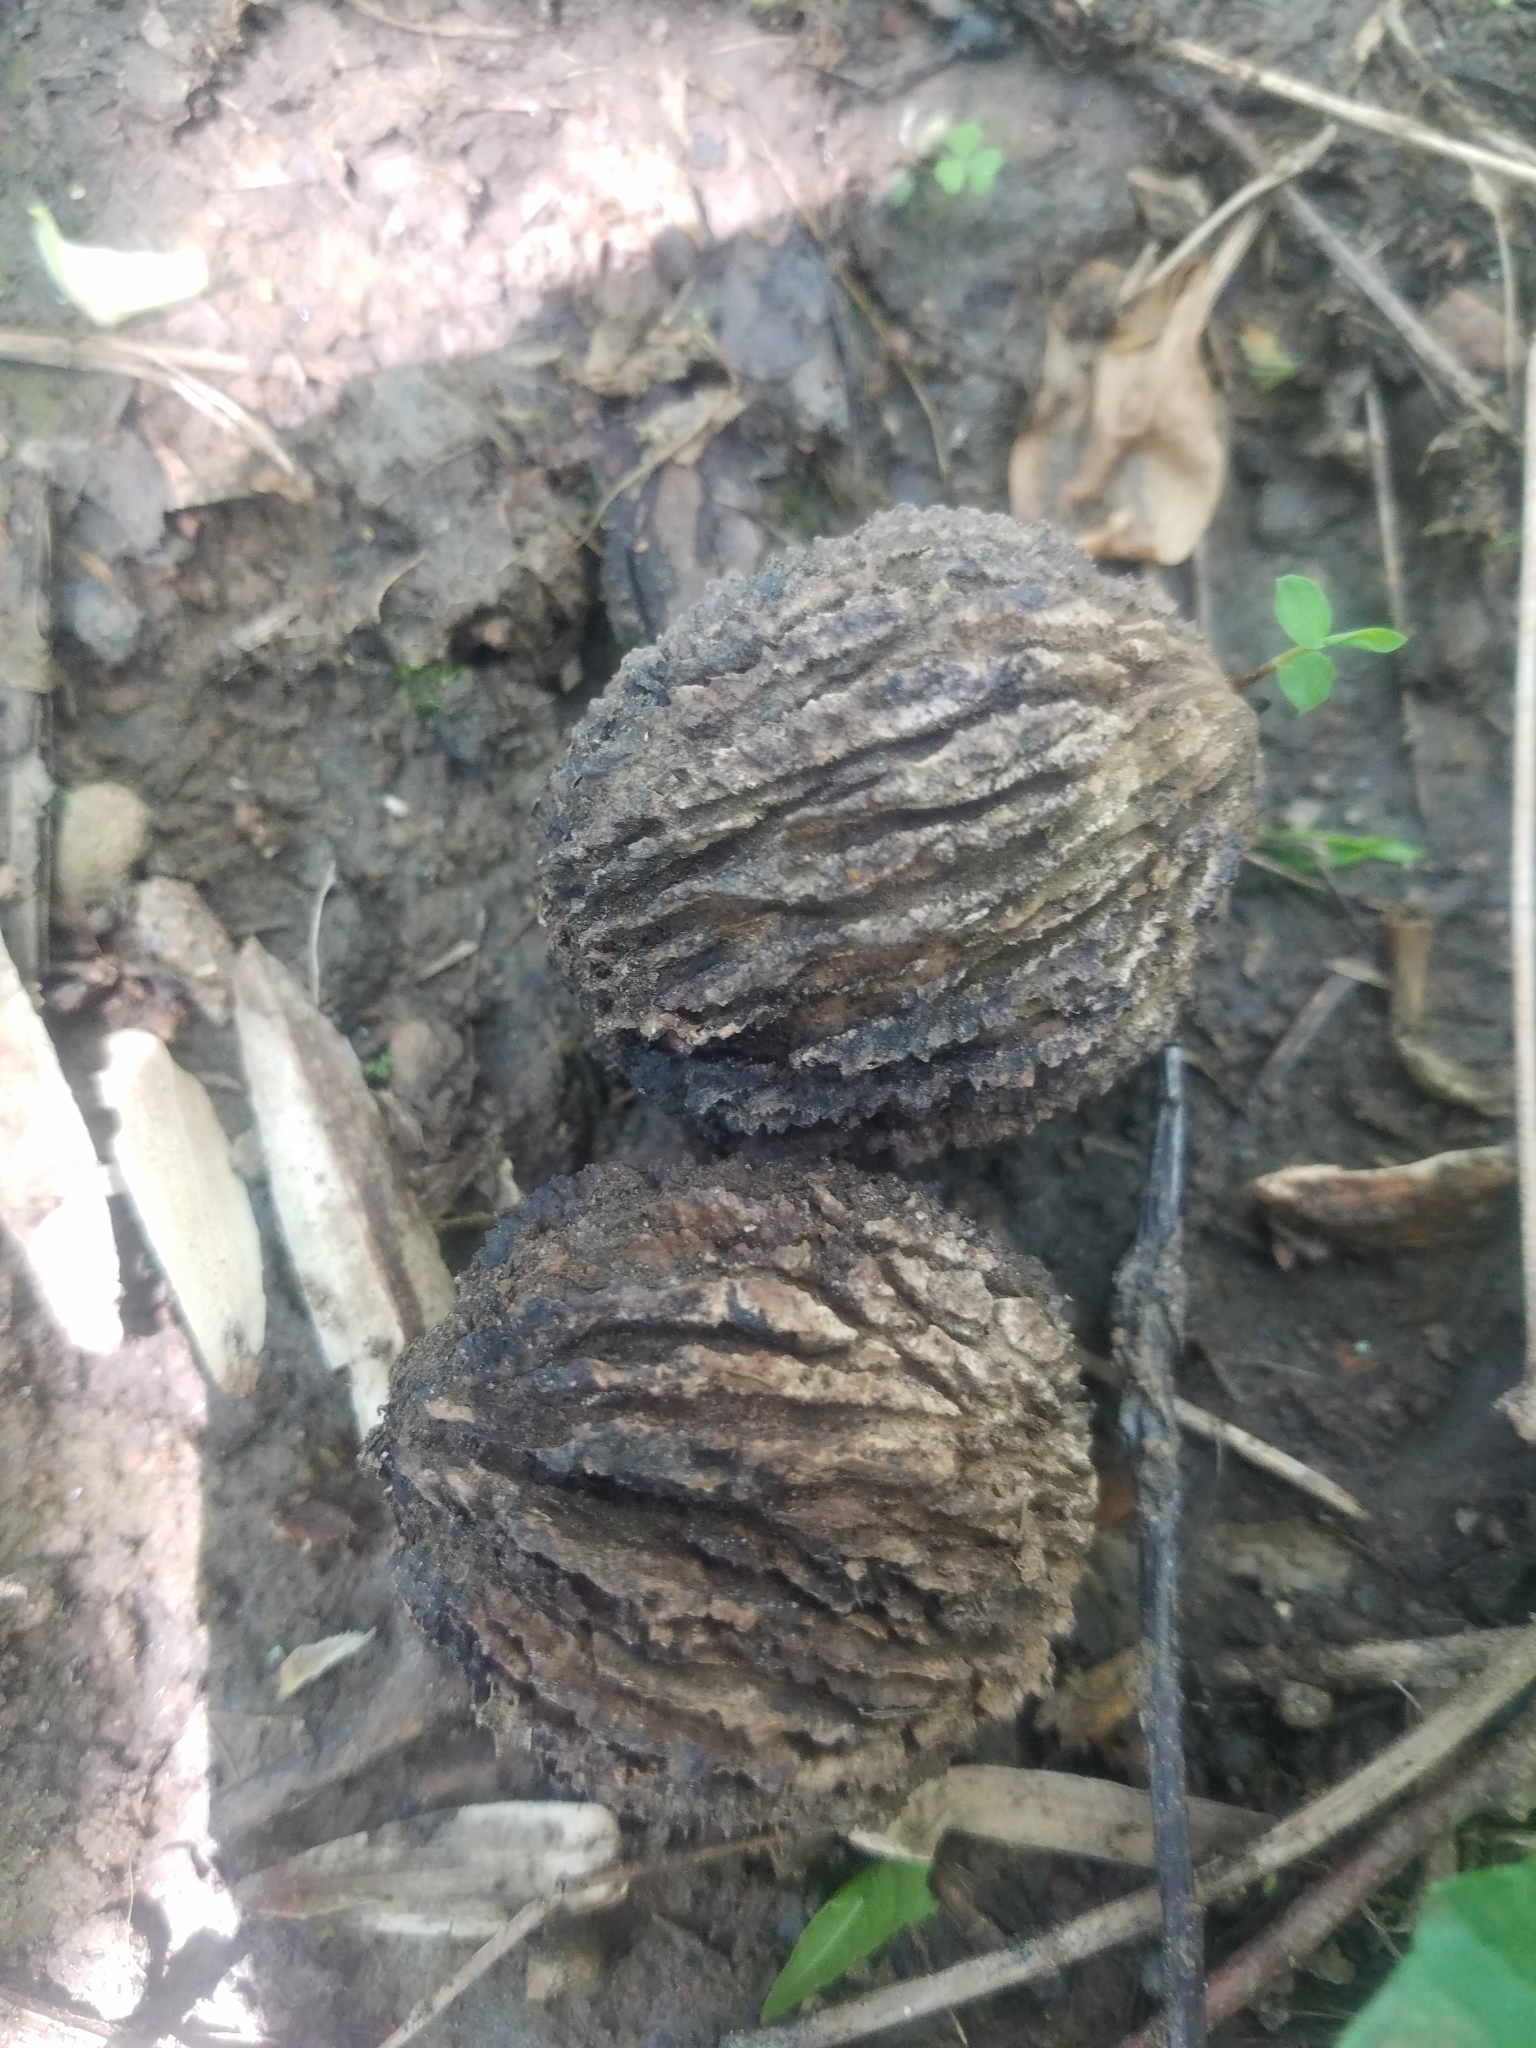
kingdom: Plantae
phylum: Tracheophyta
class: Magnoliopsida
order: Fagales
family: Juglandaceae
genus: Juglans
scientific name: Juglans nigra
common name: Black walnut
